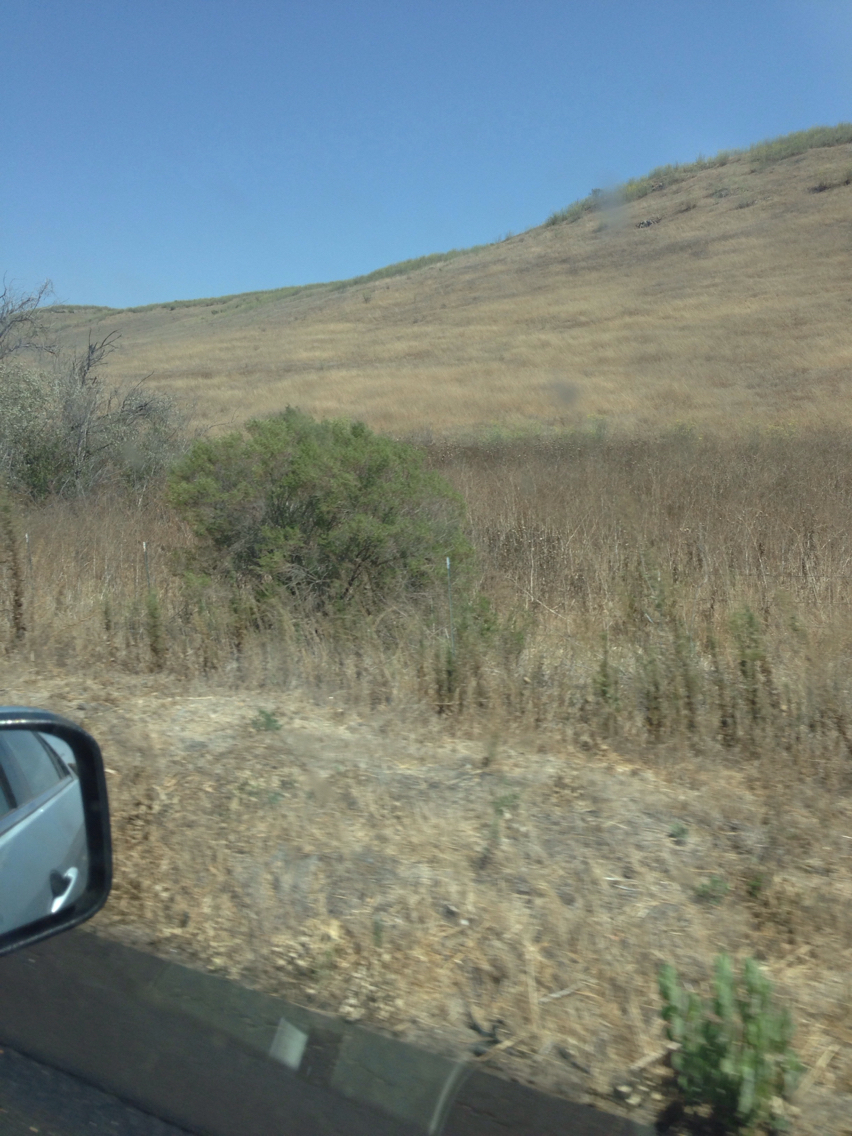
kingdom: Plantae
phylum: Tracheophyta
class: Magnoliopsida
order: Asterales
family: Asteraceae
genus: Baccharis
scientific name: Baccharis pilularis
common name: Coyotebrush
